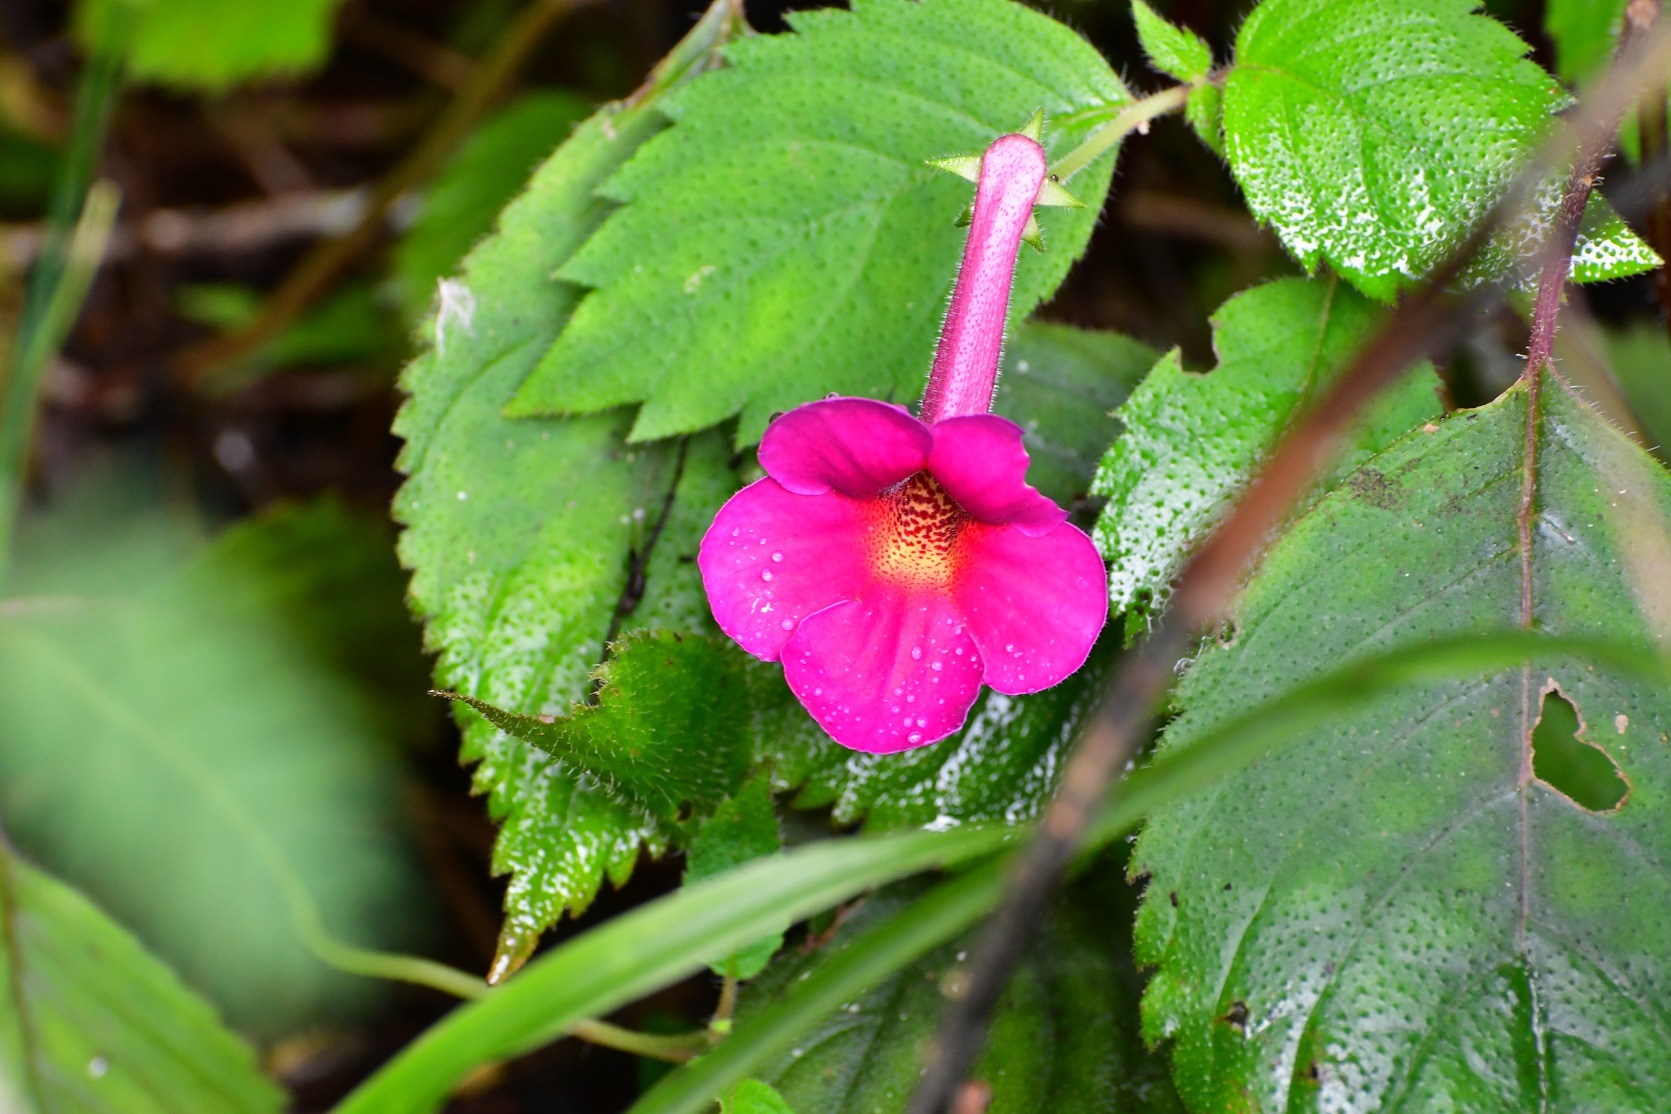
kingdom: Plantae
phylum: Tracheophyta
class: Magnoliopsida
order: Lamiales
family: Gesneriaceae
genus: Achimenes
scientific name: Achimenes skinneri
